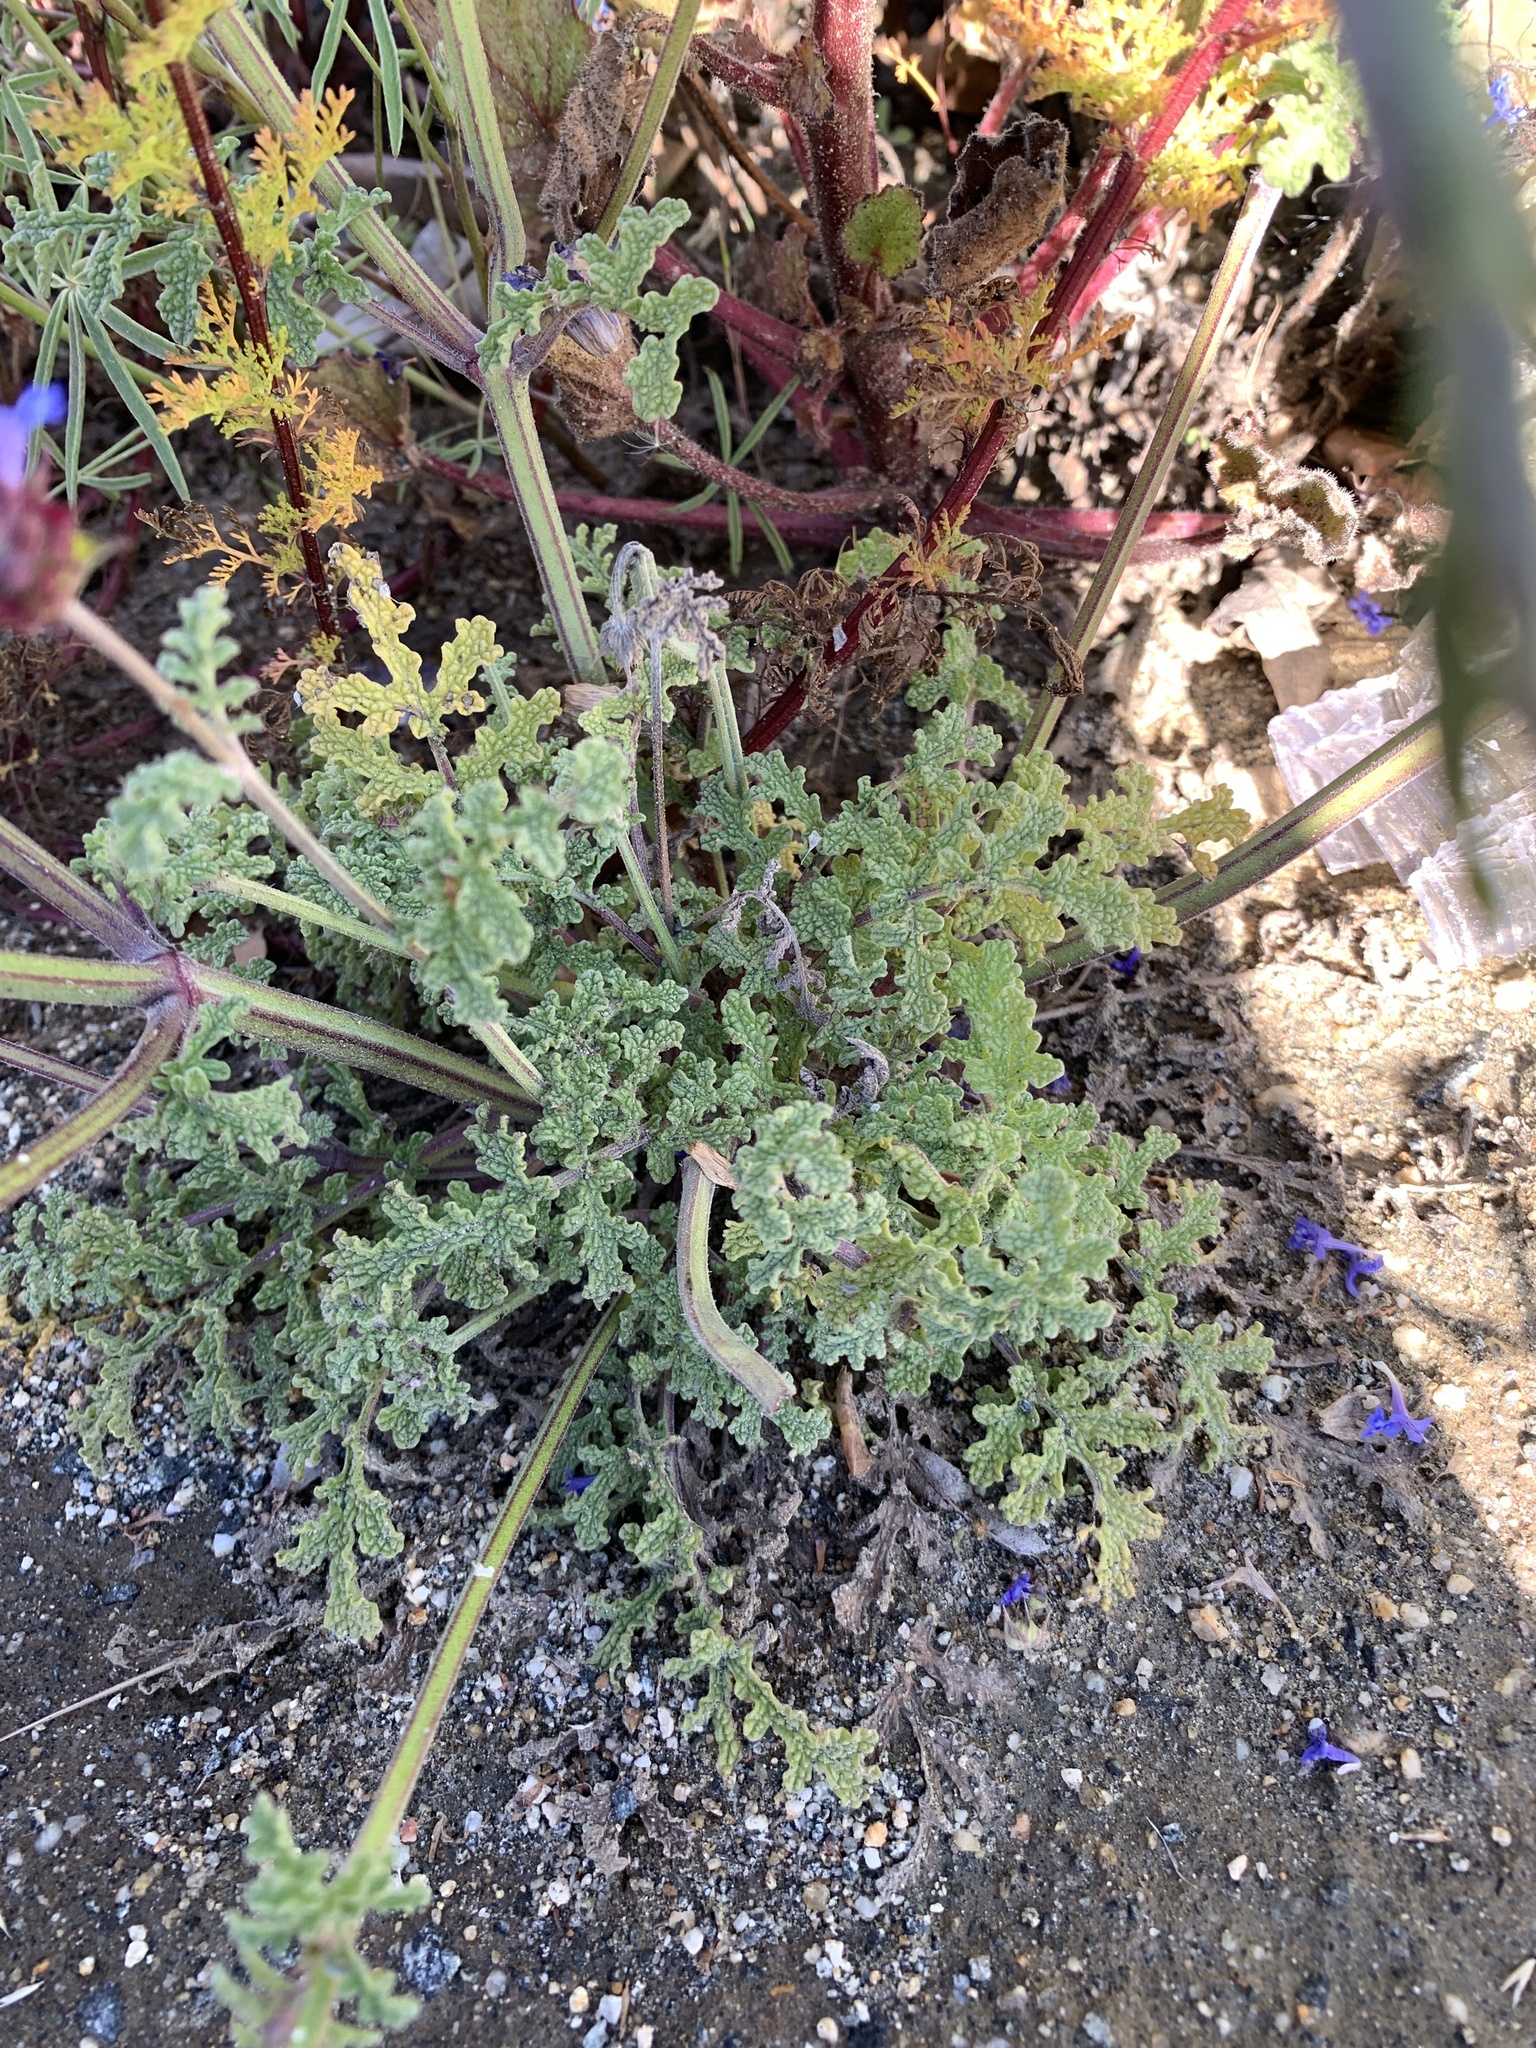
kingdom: Plantae
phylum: Tracheophyta
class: Magnoliopsida
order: Lamiales
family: Lamiaceae
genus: Salvia
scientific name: Salvia columbariae
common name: Chia
